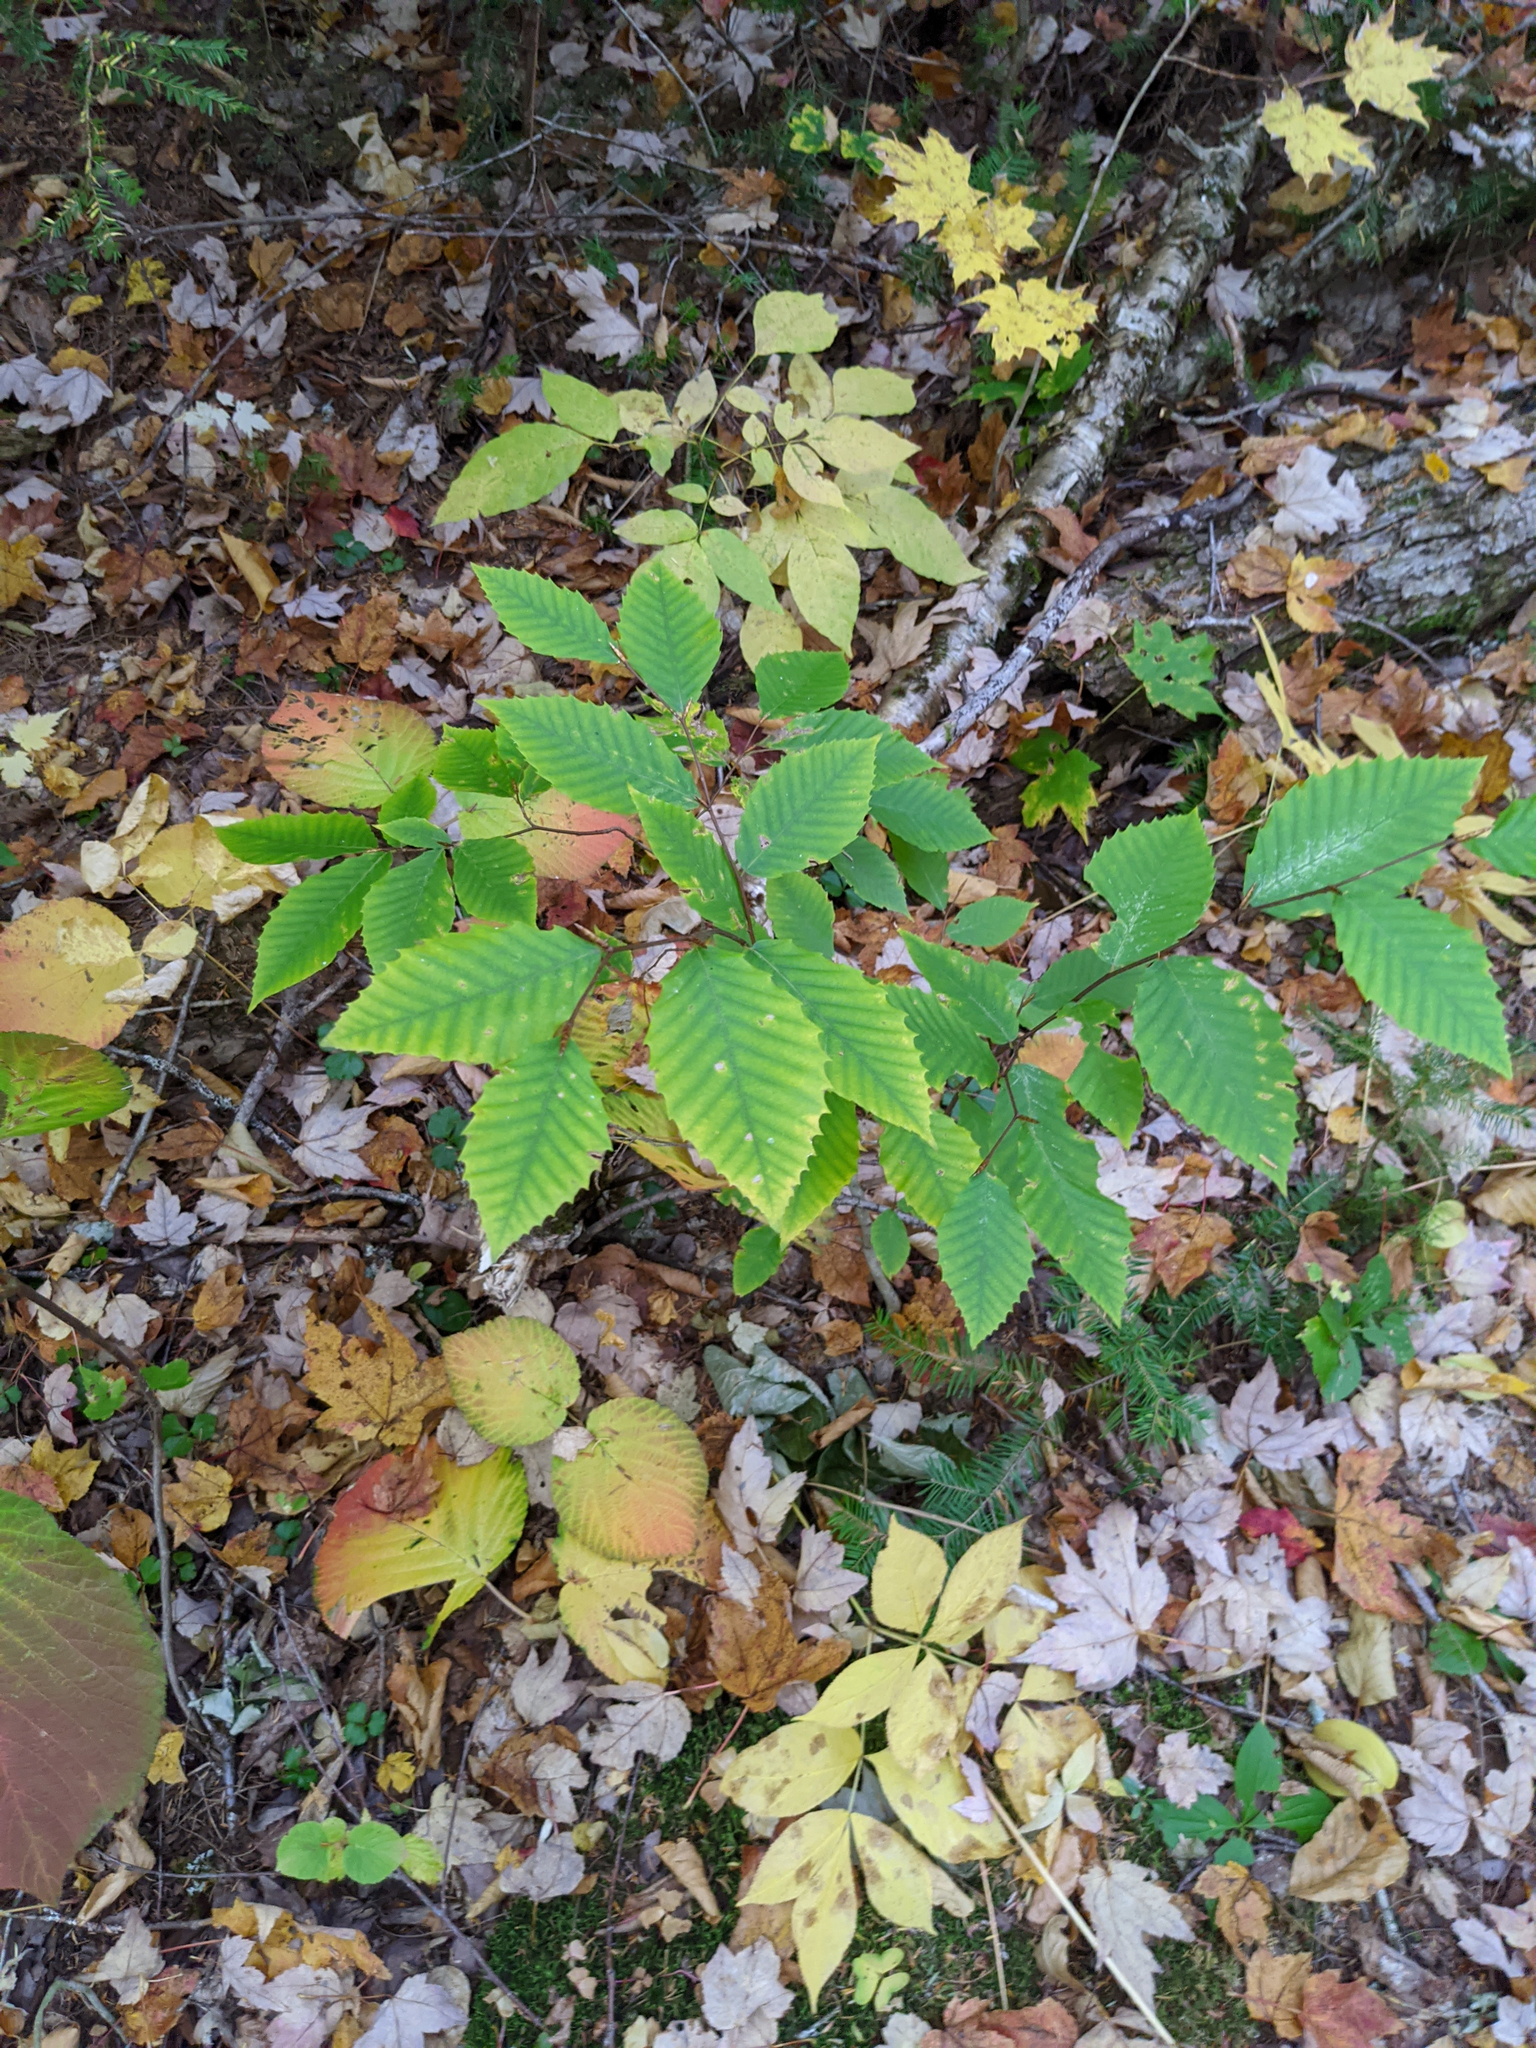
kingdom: Plantae
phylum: Tracheophyta
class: Magnoliopsida
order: Fagales
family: Fagaceae
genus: Fagus
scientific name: Fagus grandifolia
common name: American beech
